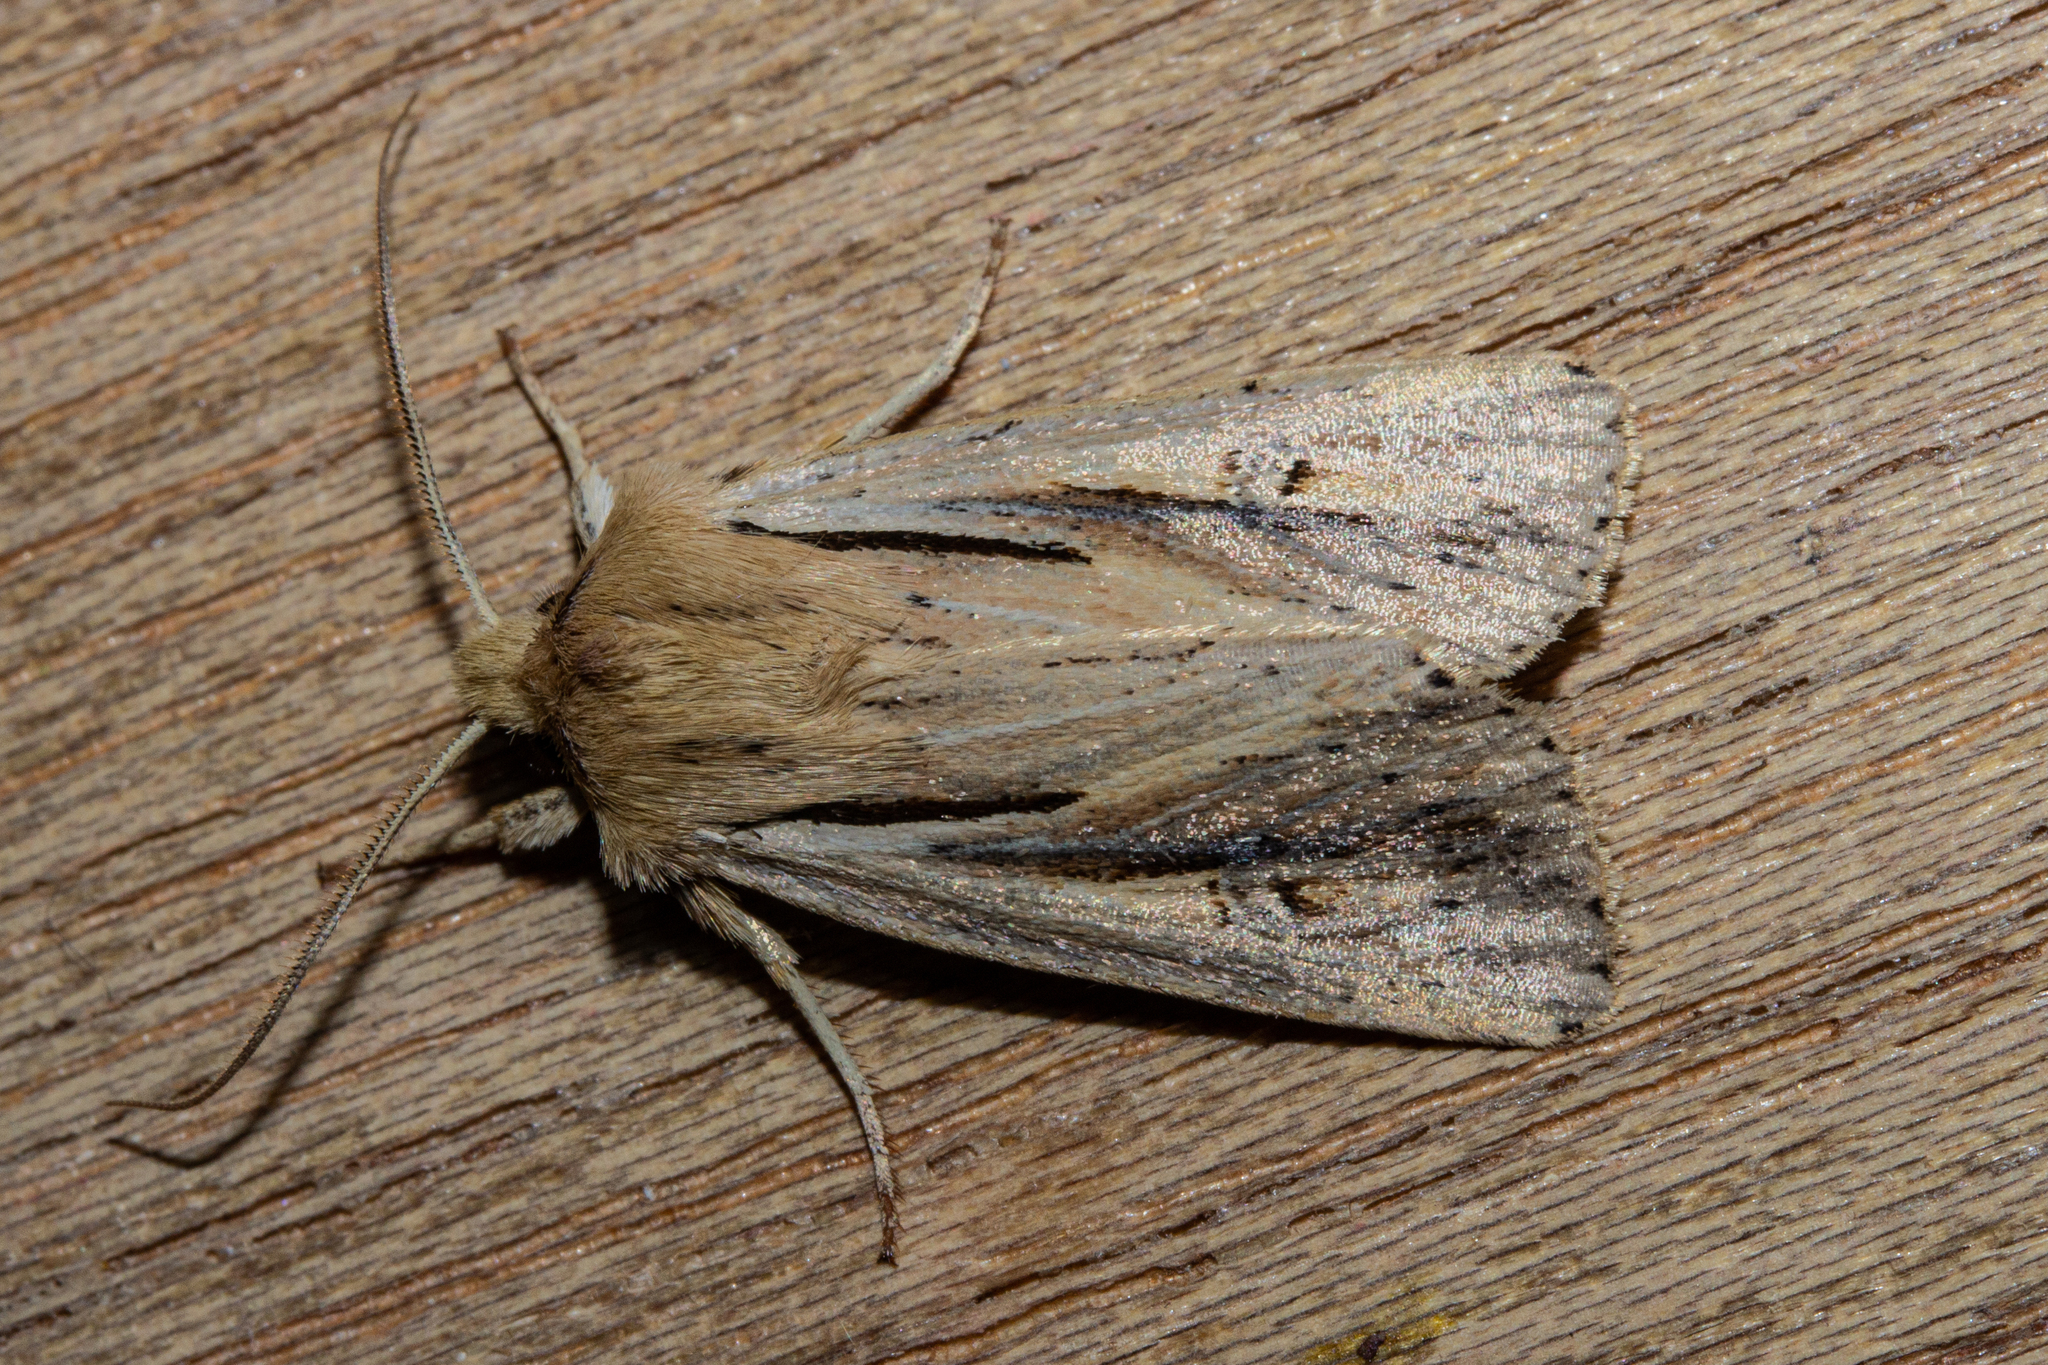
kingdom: Animalia
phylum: Arthropoda
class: Insecta
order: Lepidoptera
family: Noctuidae
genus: Ichneutica
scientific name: Ichneutica propria
